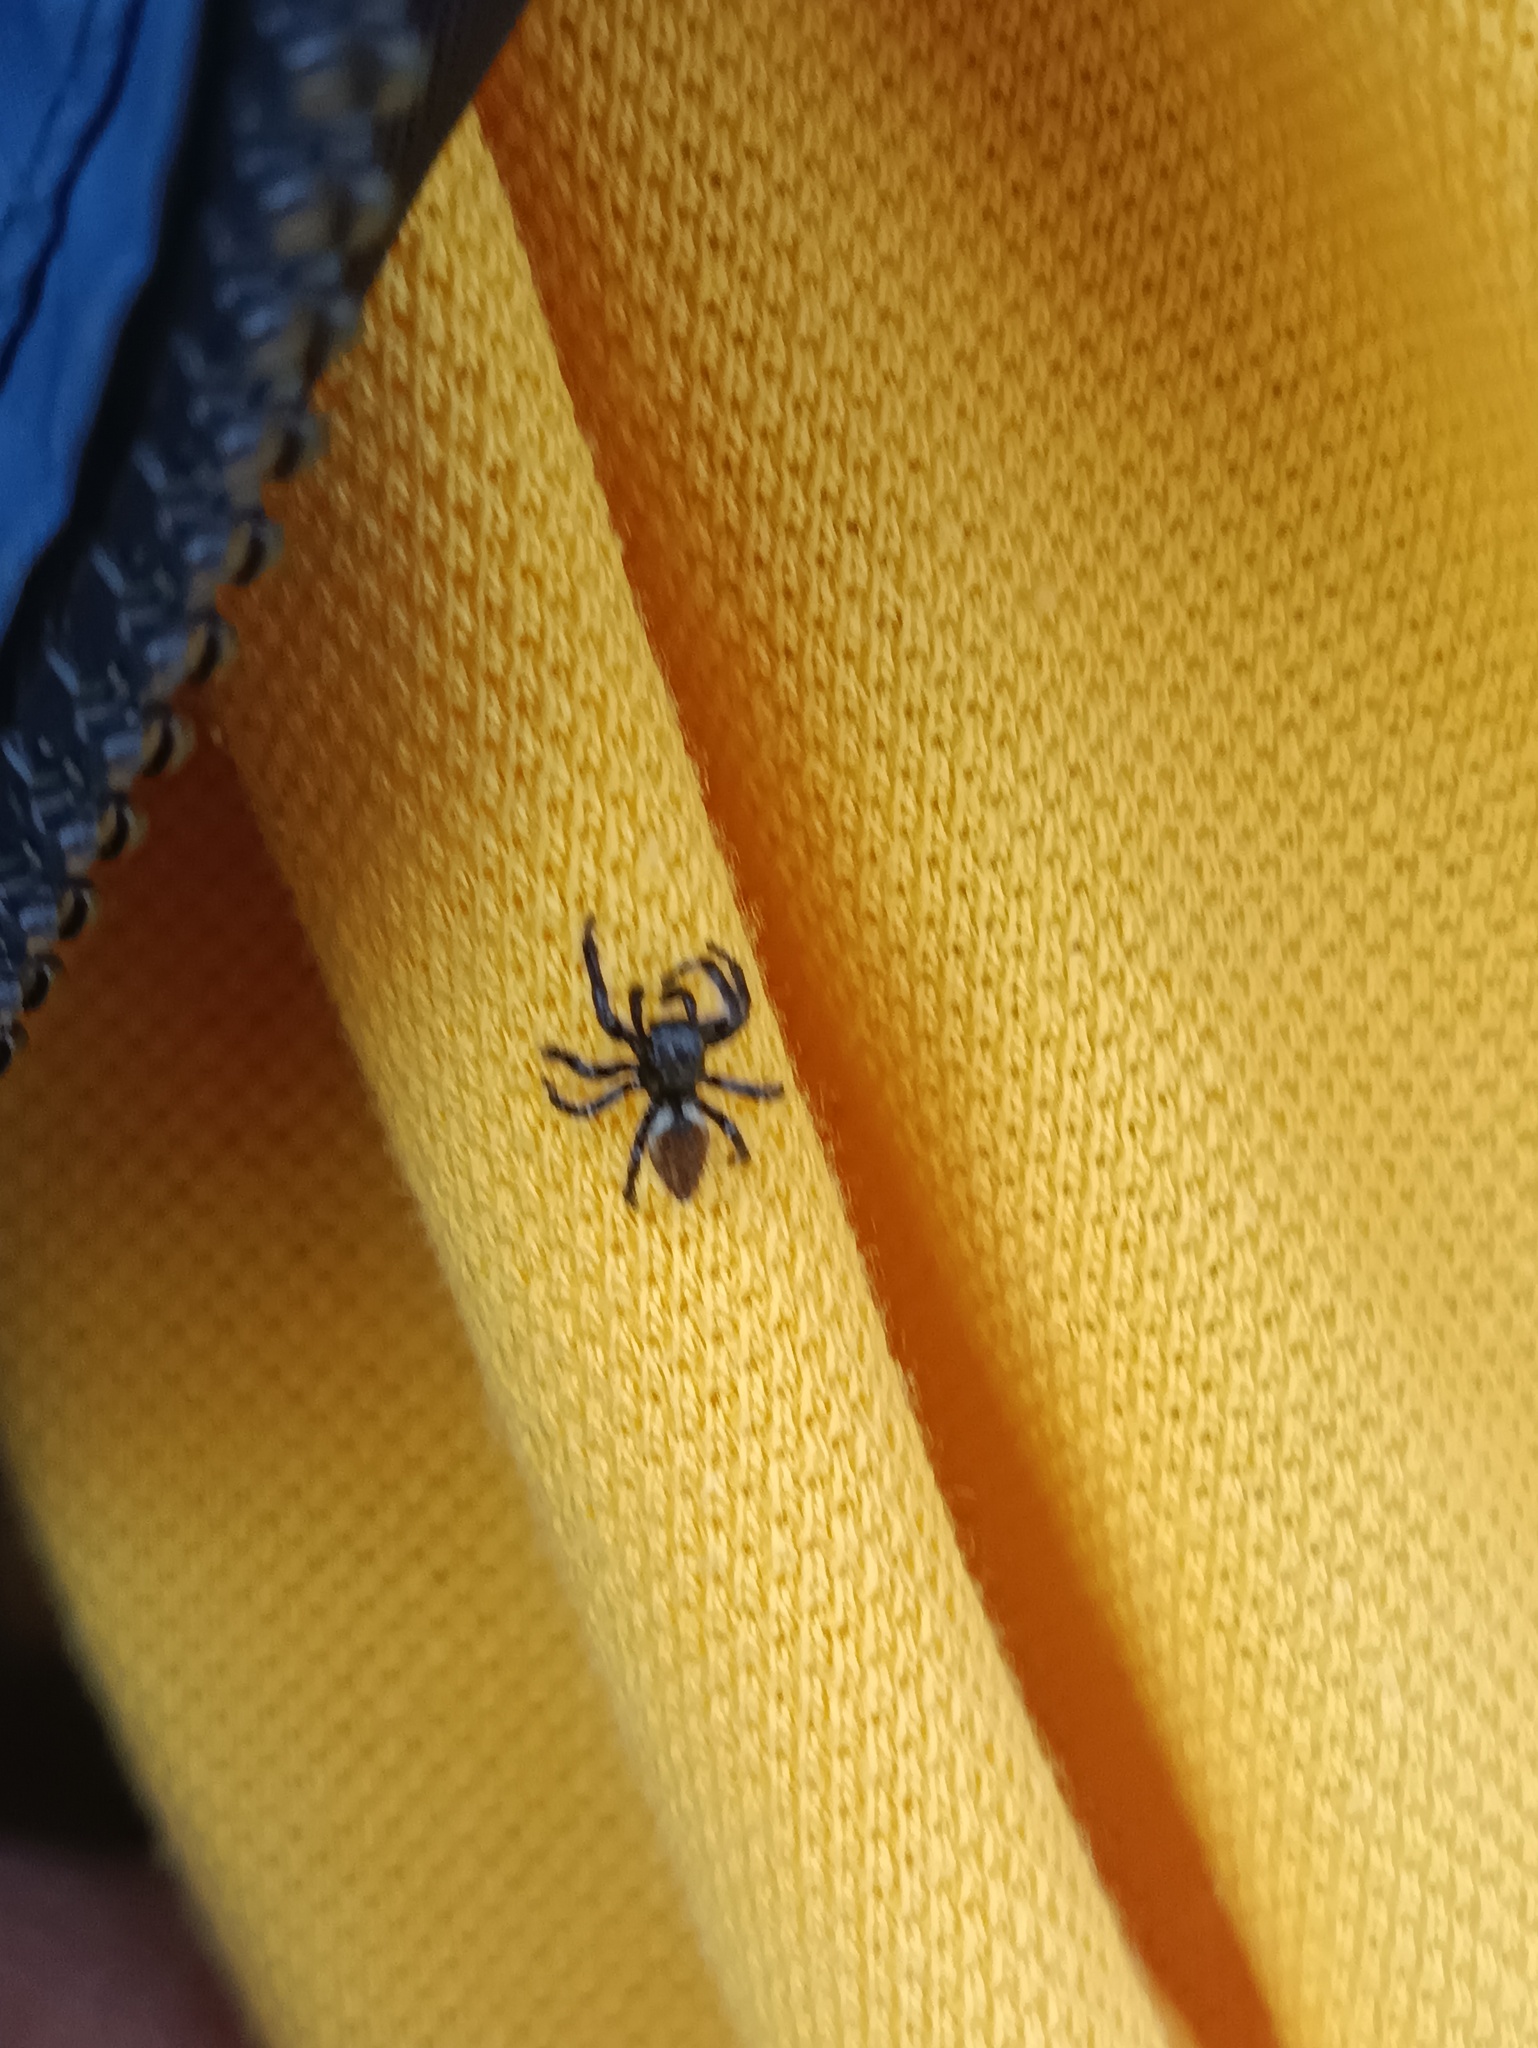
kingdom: Animalia
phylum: Arthropoda
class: Arachnida
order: Araneae
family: Salticidae
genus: Carrhotus
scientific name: Carrhotus xanthogramma
